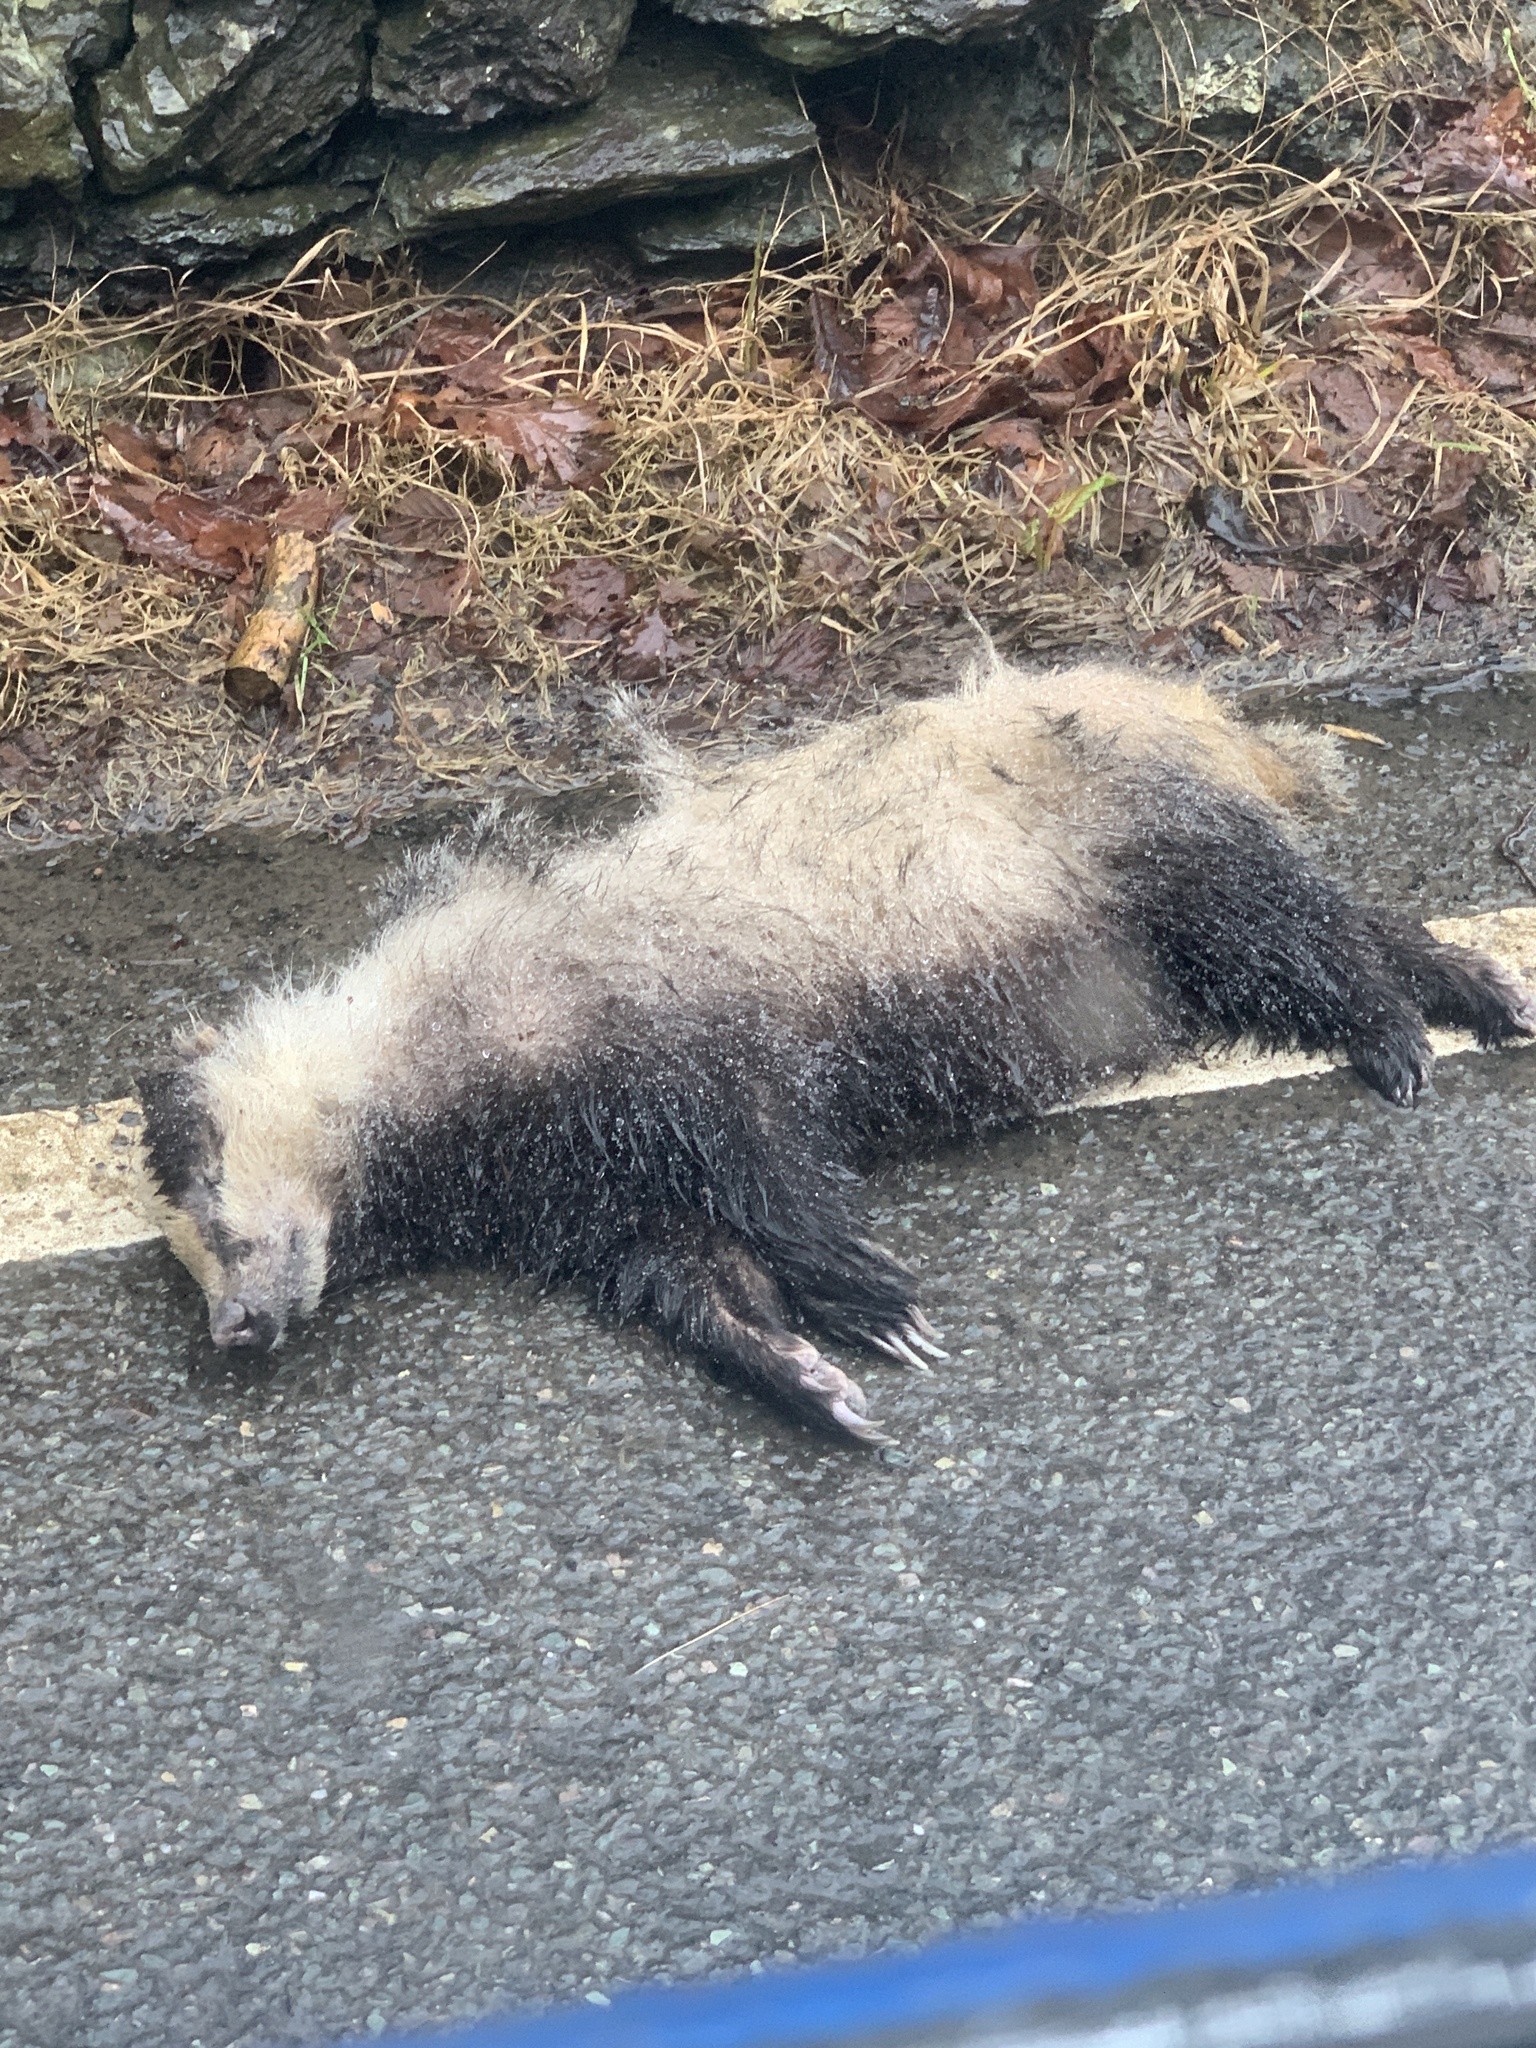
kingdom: Animalia
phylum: Chordata
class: Mammalia
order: Carnivora
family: Mustelidae
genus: Meles
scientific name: Meles meles
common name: Eurasian badger
